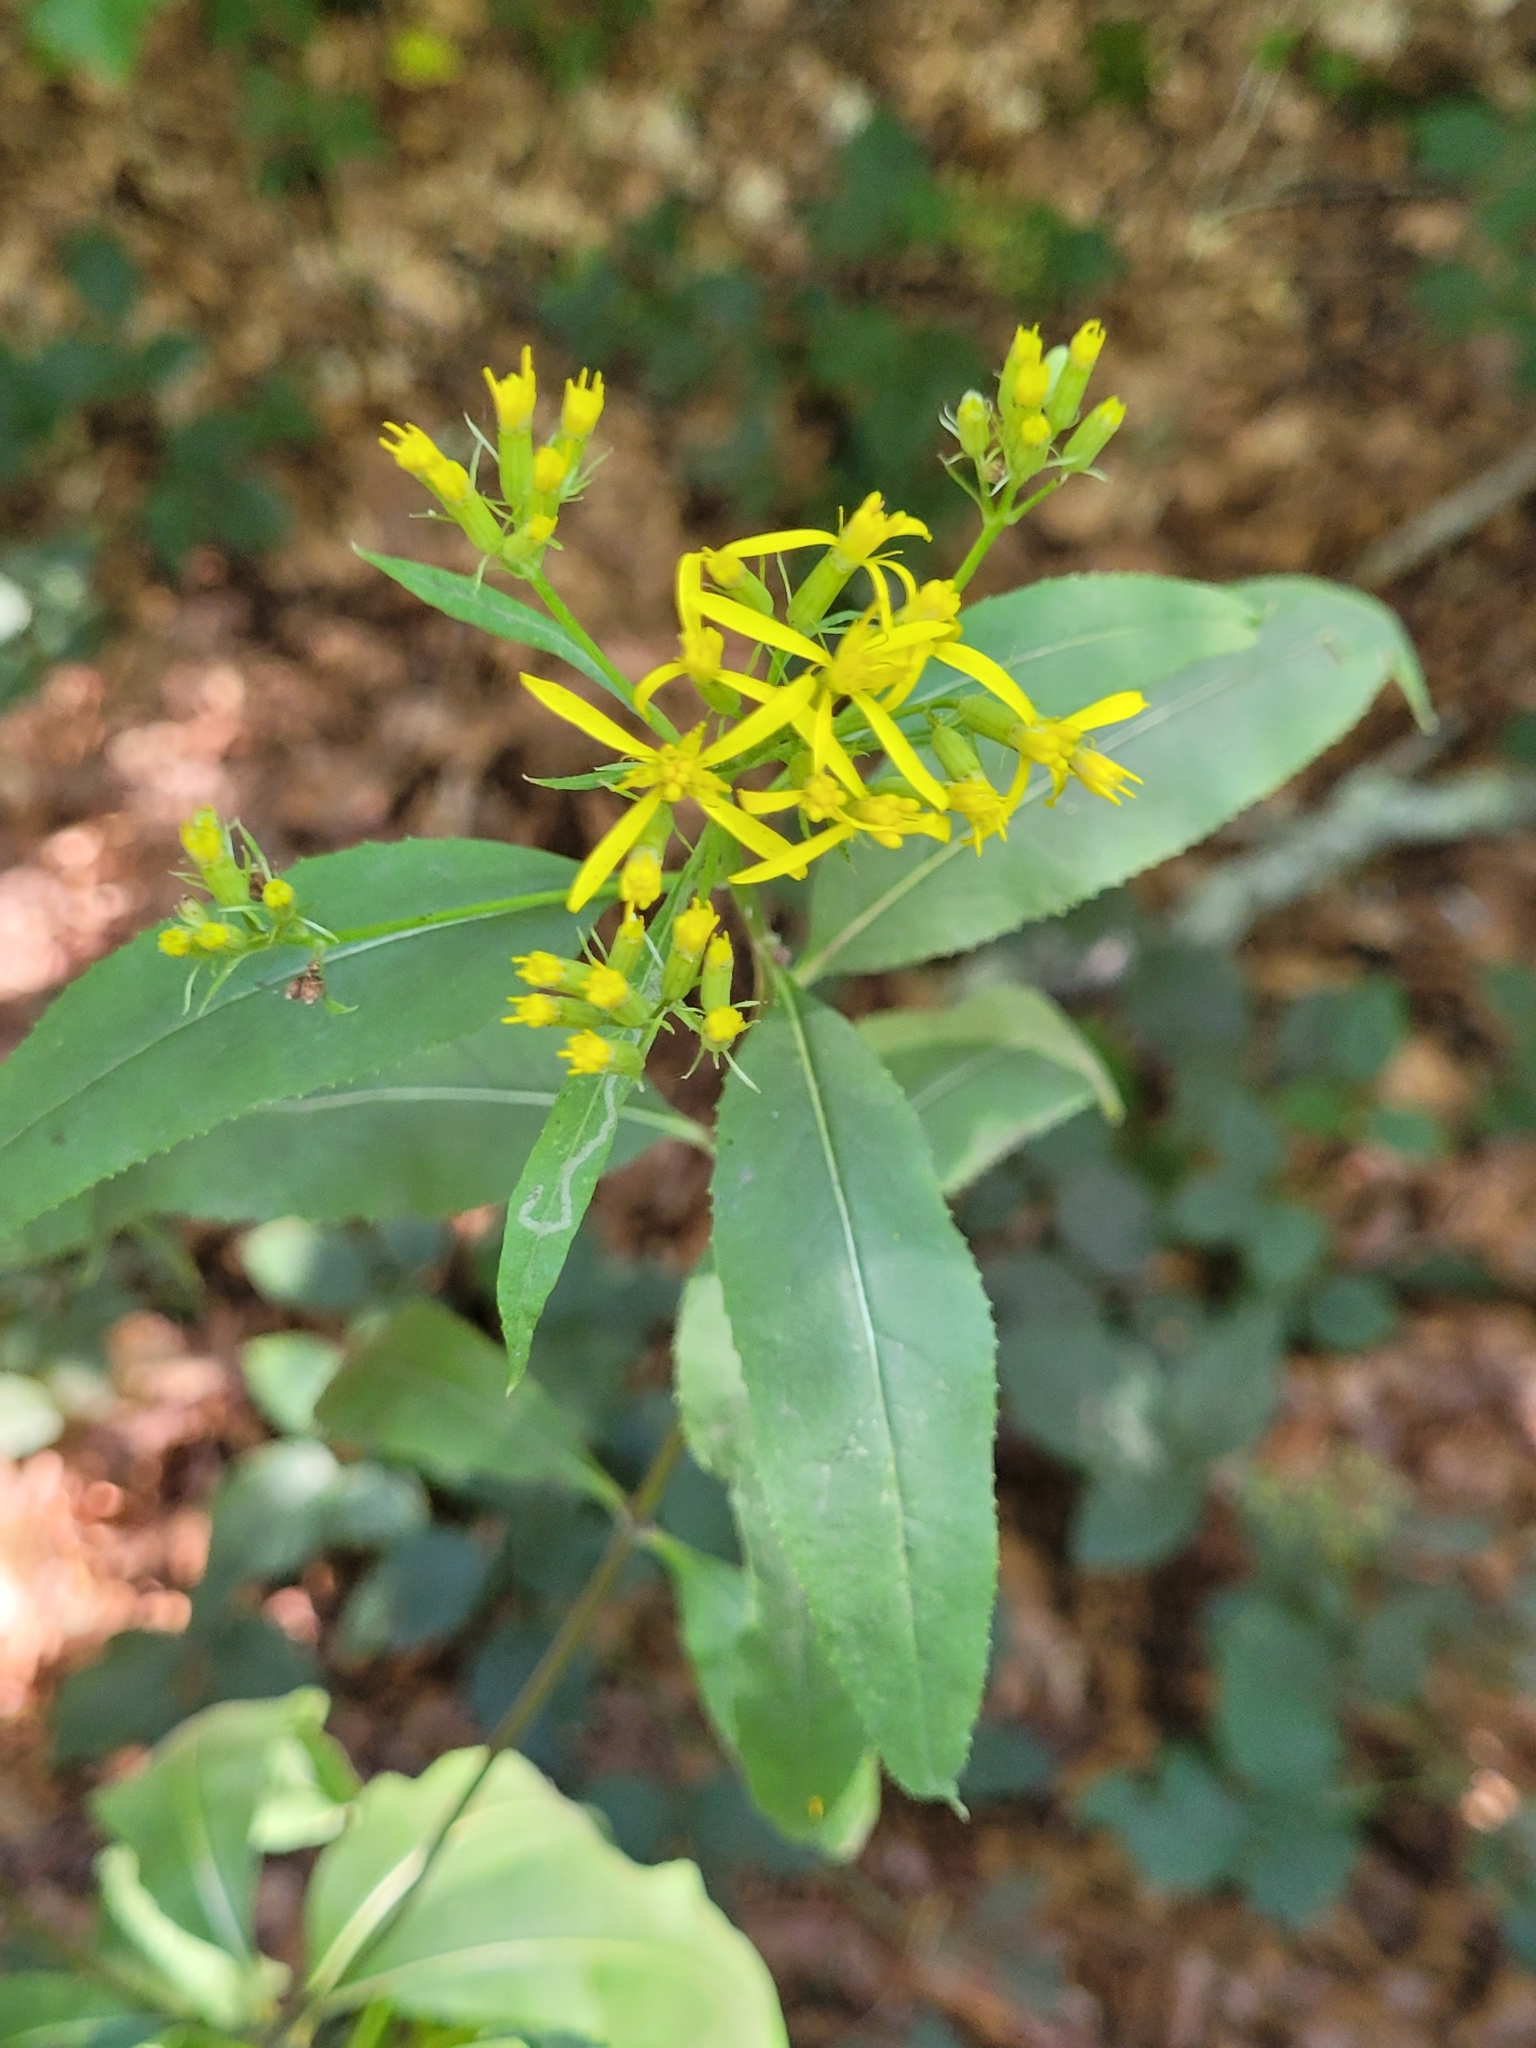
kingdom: Plantae
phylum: Tracheophyta
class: Magnoliopsida
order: Asterales
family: Asteraceae
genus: Senecio
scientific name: Senecio ovatus
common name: Wood ragwort
